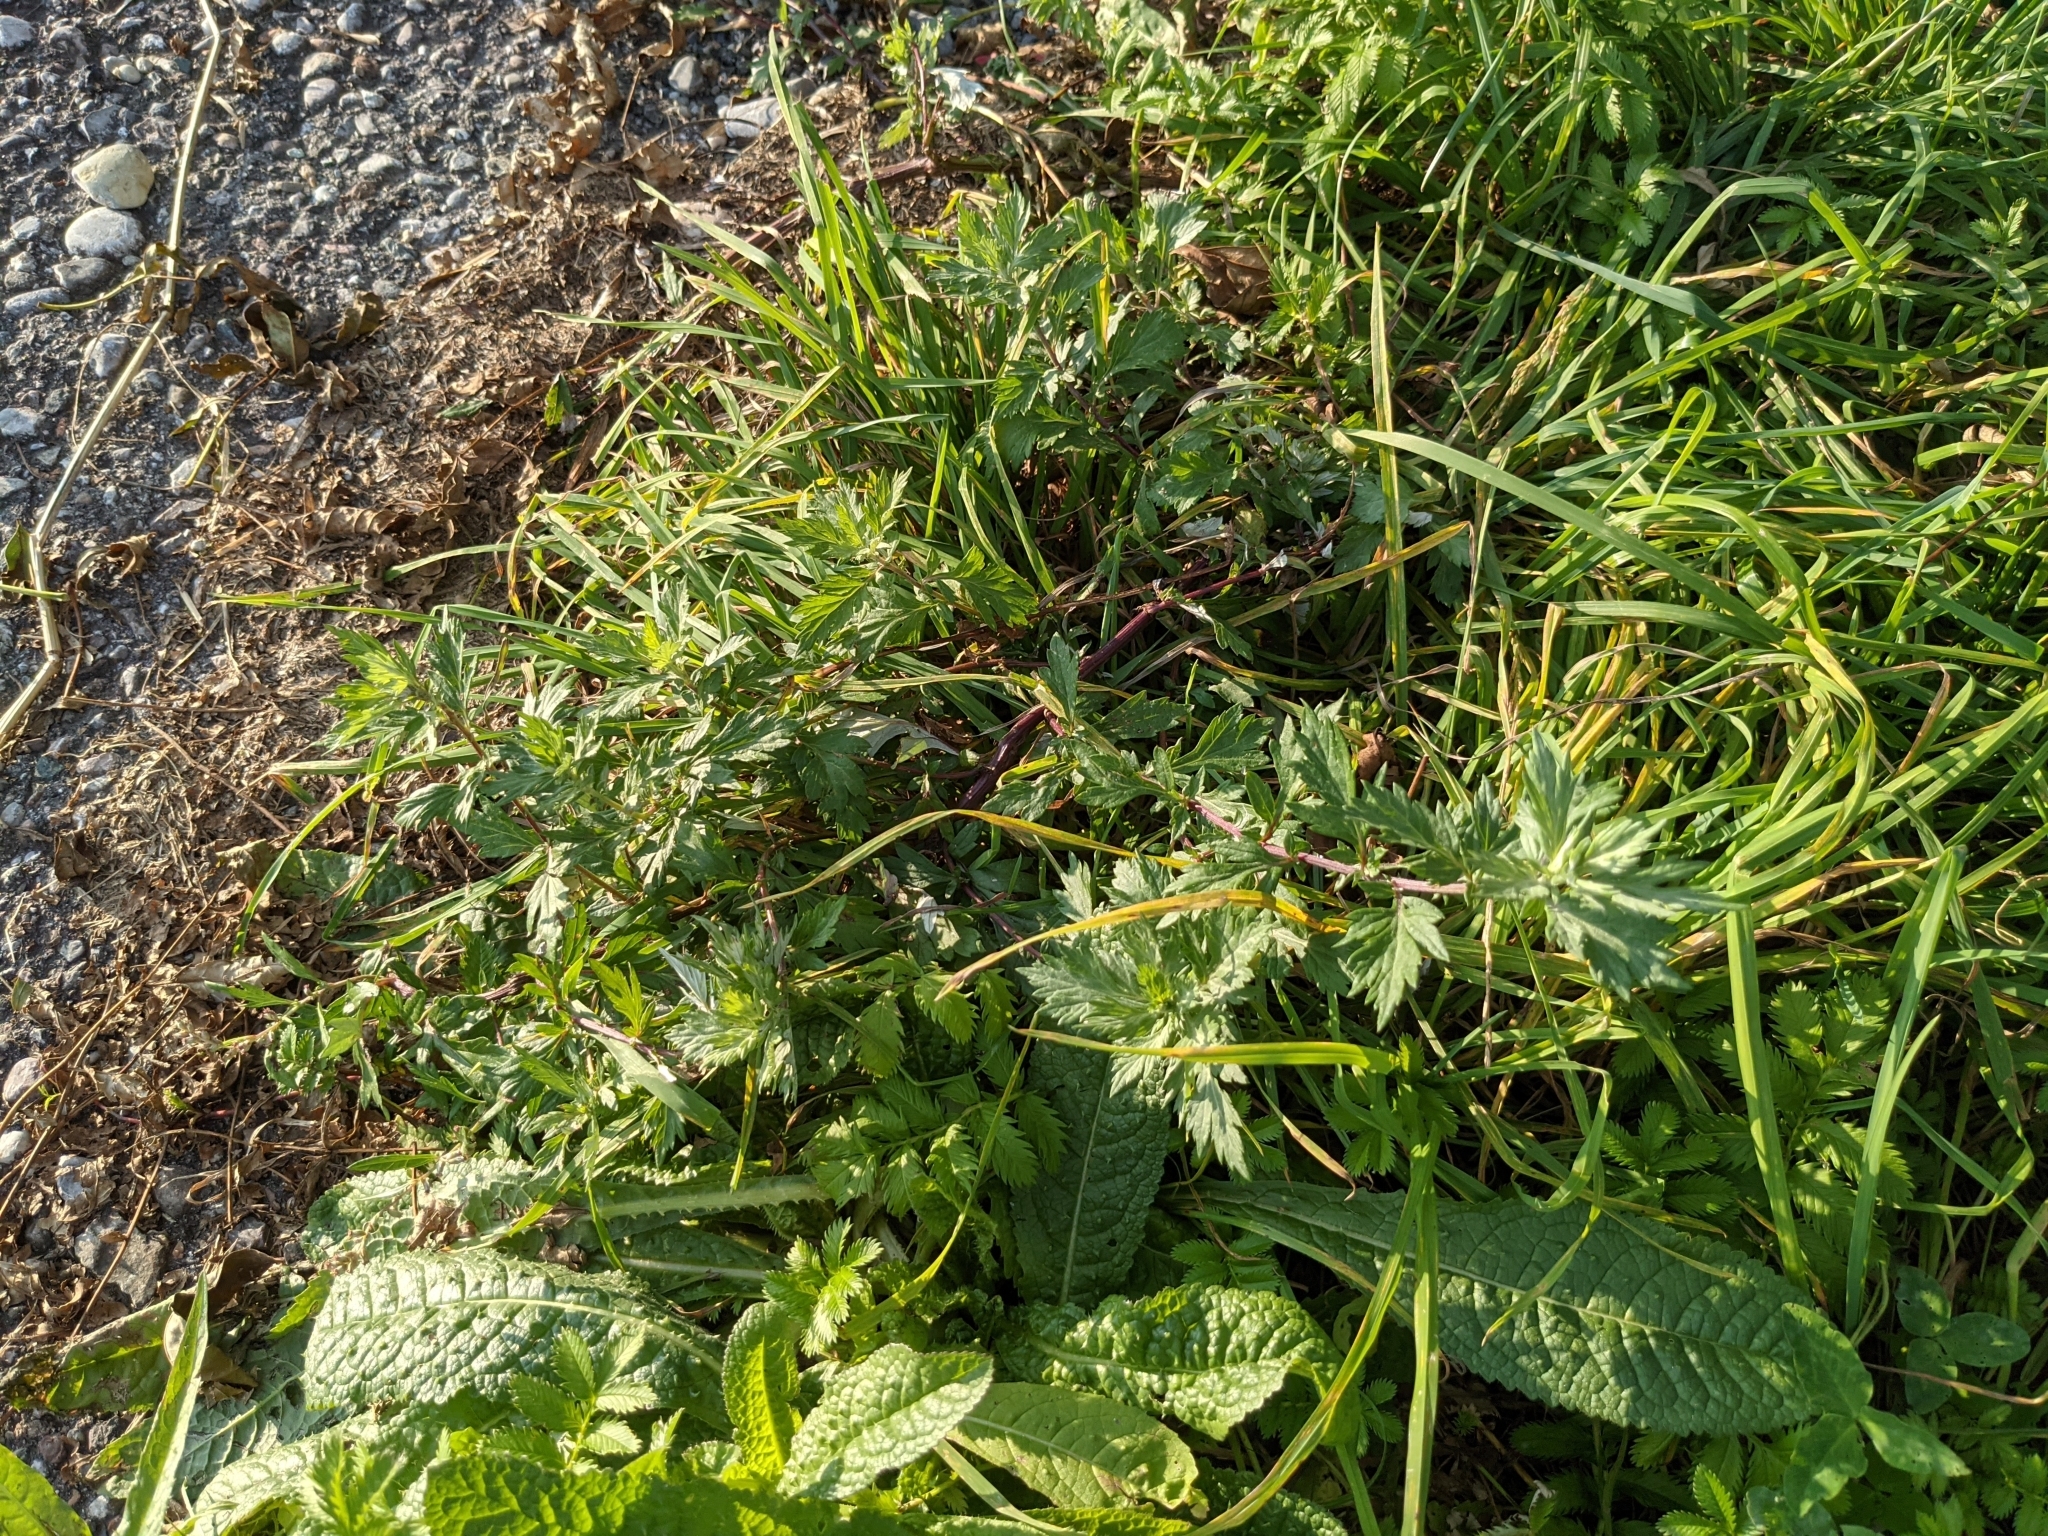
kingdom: Plantae
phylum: Tracheophyta
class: Magnoliopsida
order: Asterales
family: Asteraceae
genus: Artemisia
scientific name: Artemisia vulgaris
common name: Mugwort
